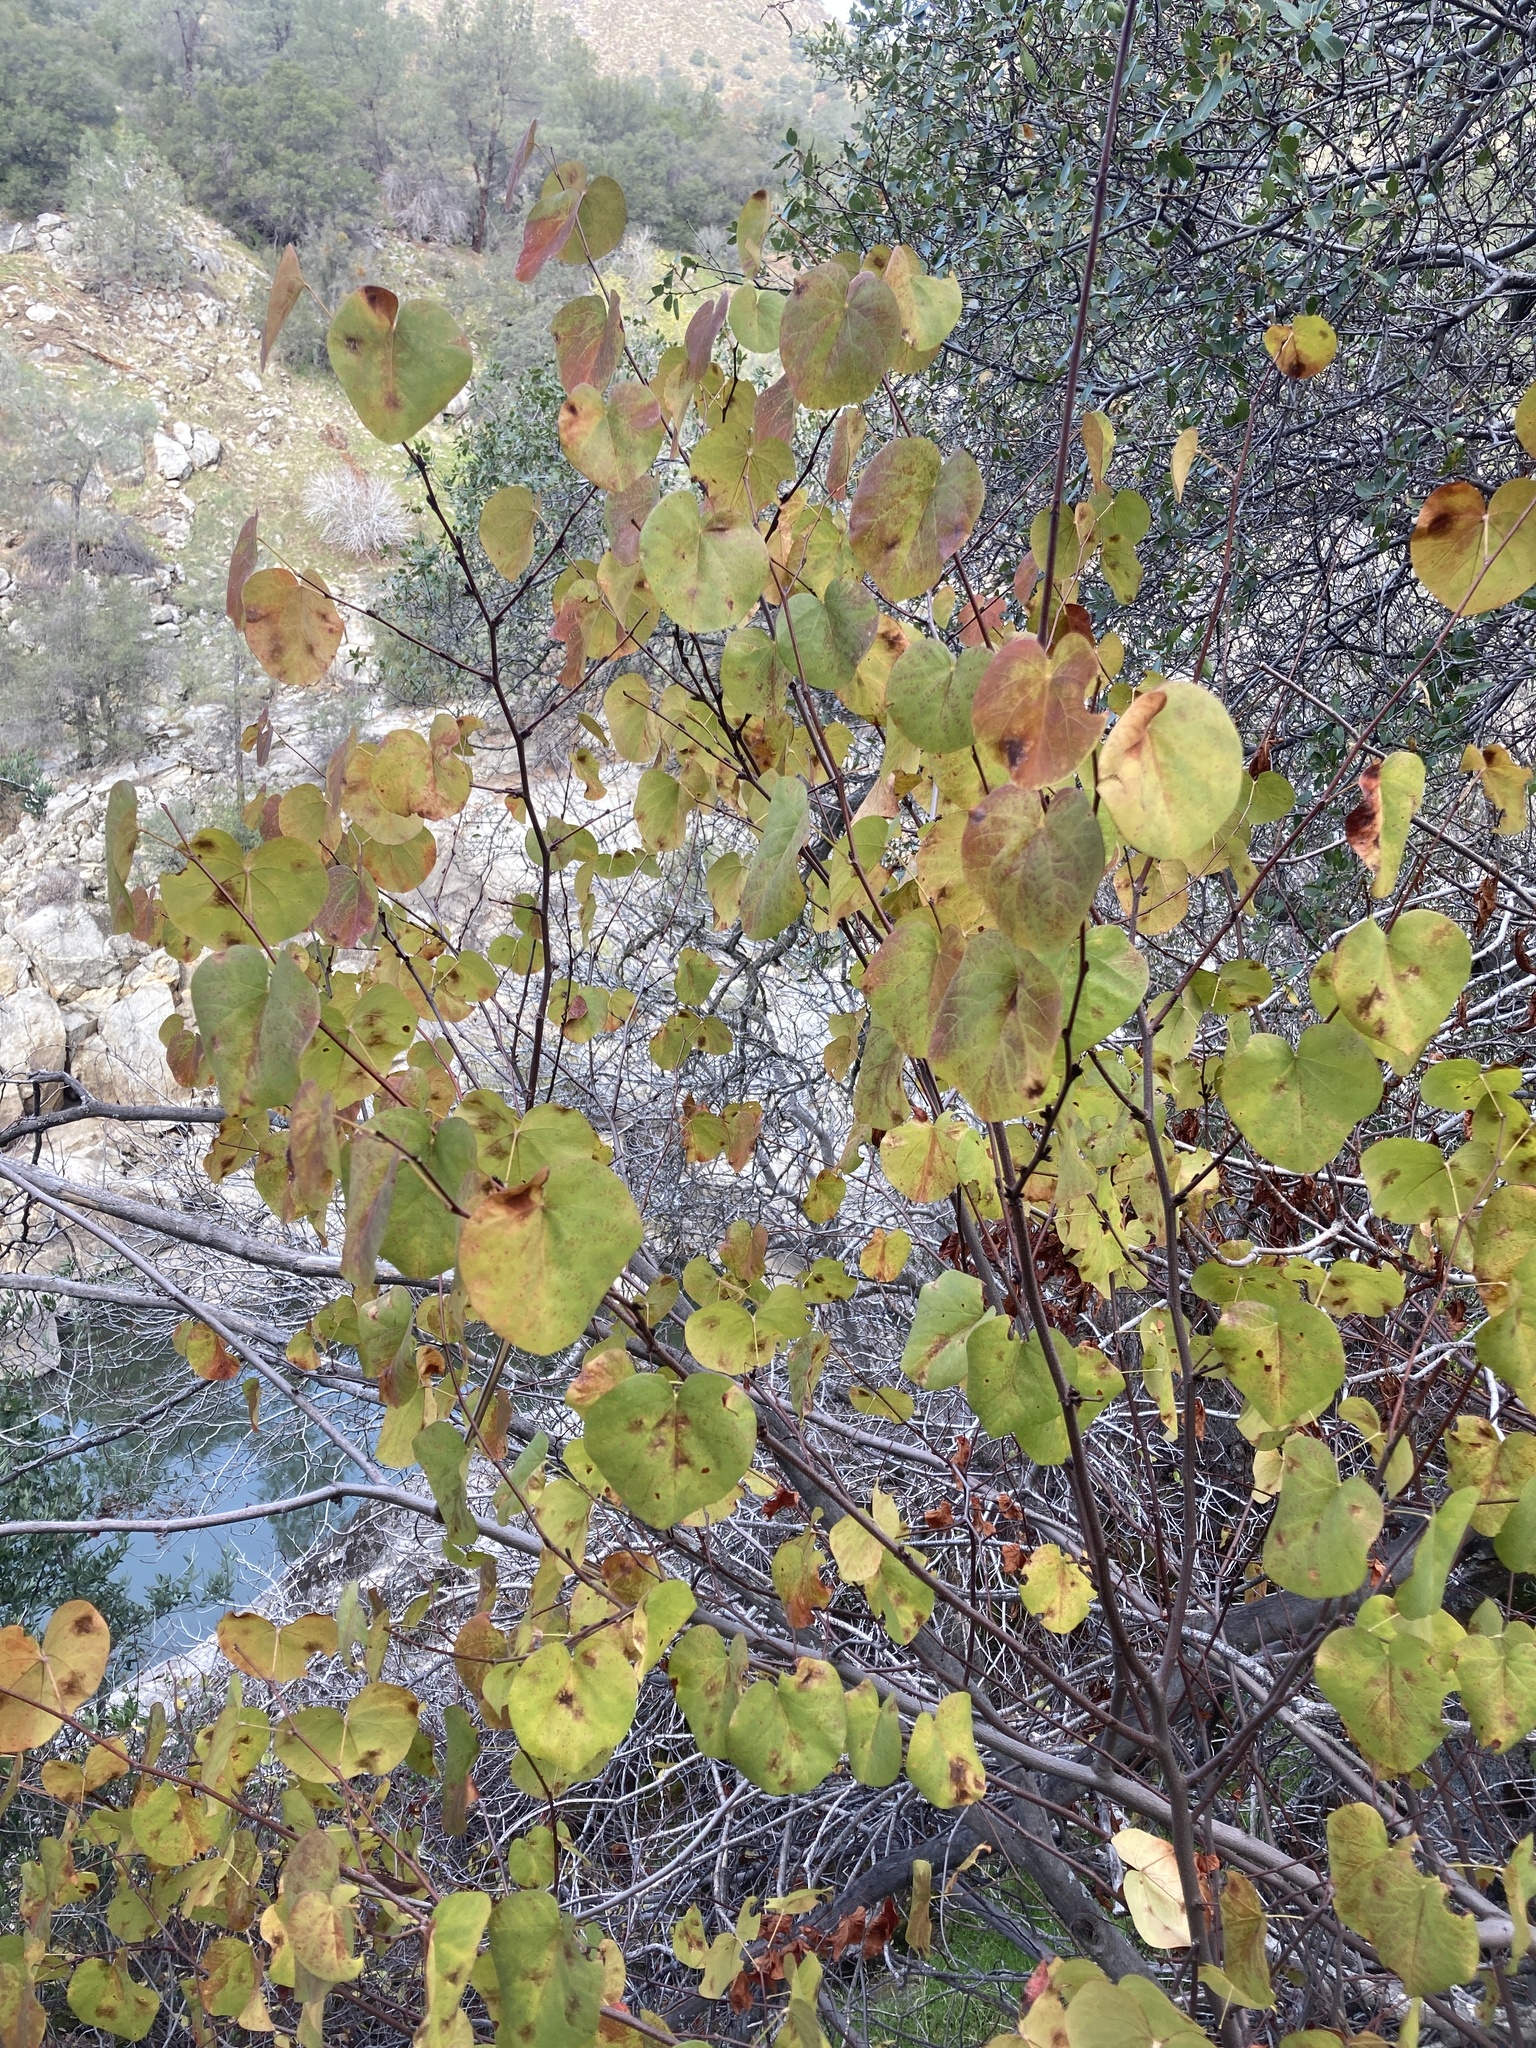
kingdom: Plantae
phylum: Tracheophyta
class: Magnoliopsida
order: Fabales
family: Fabaceae
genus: Cercis
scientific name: Cercis occidentalis
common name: California redbud
